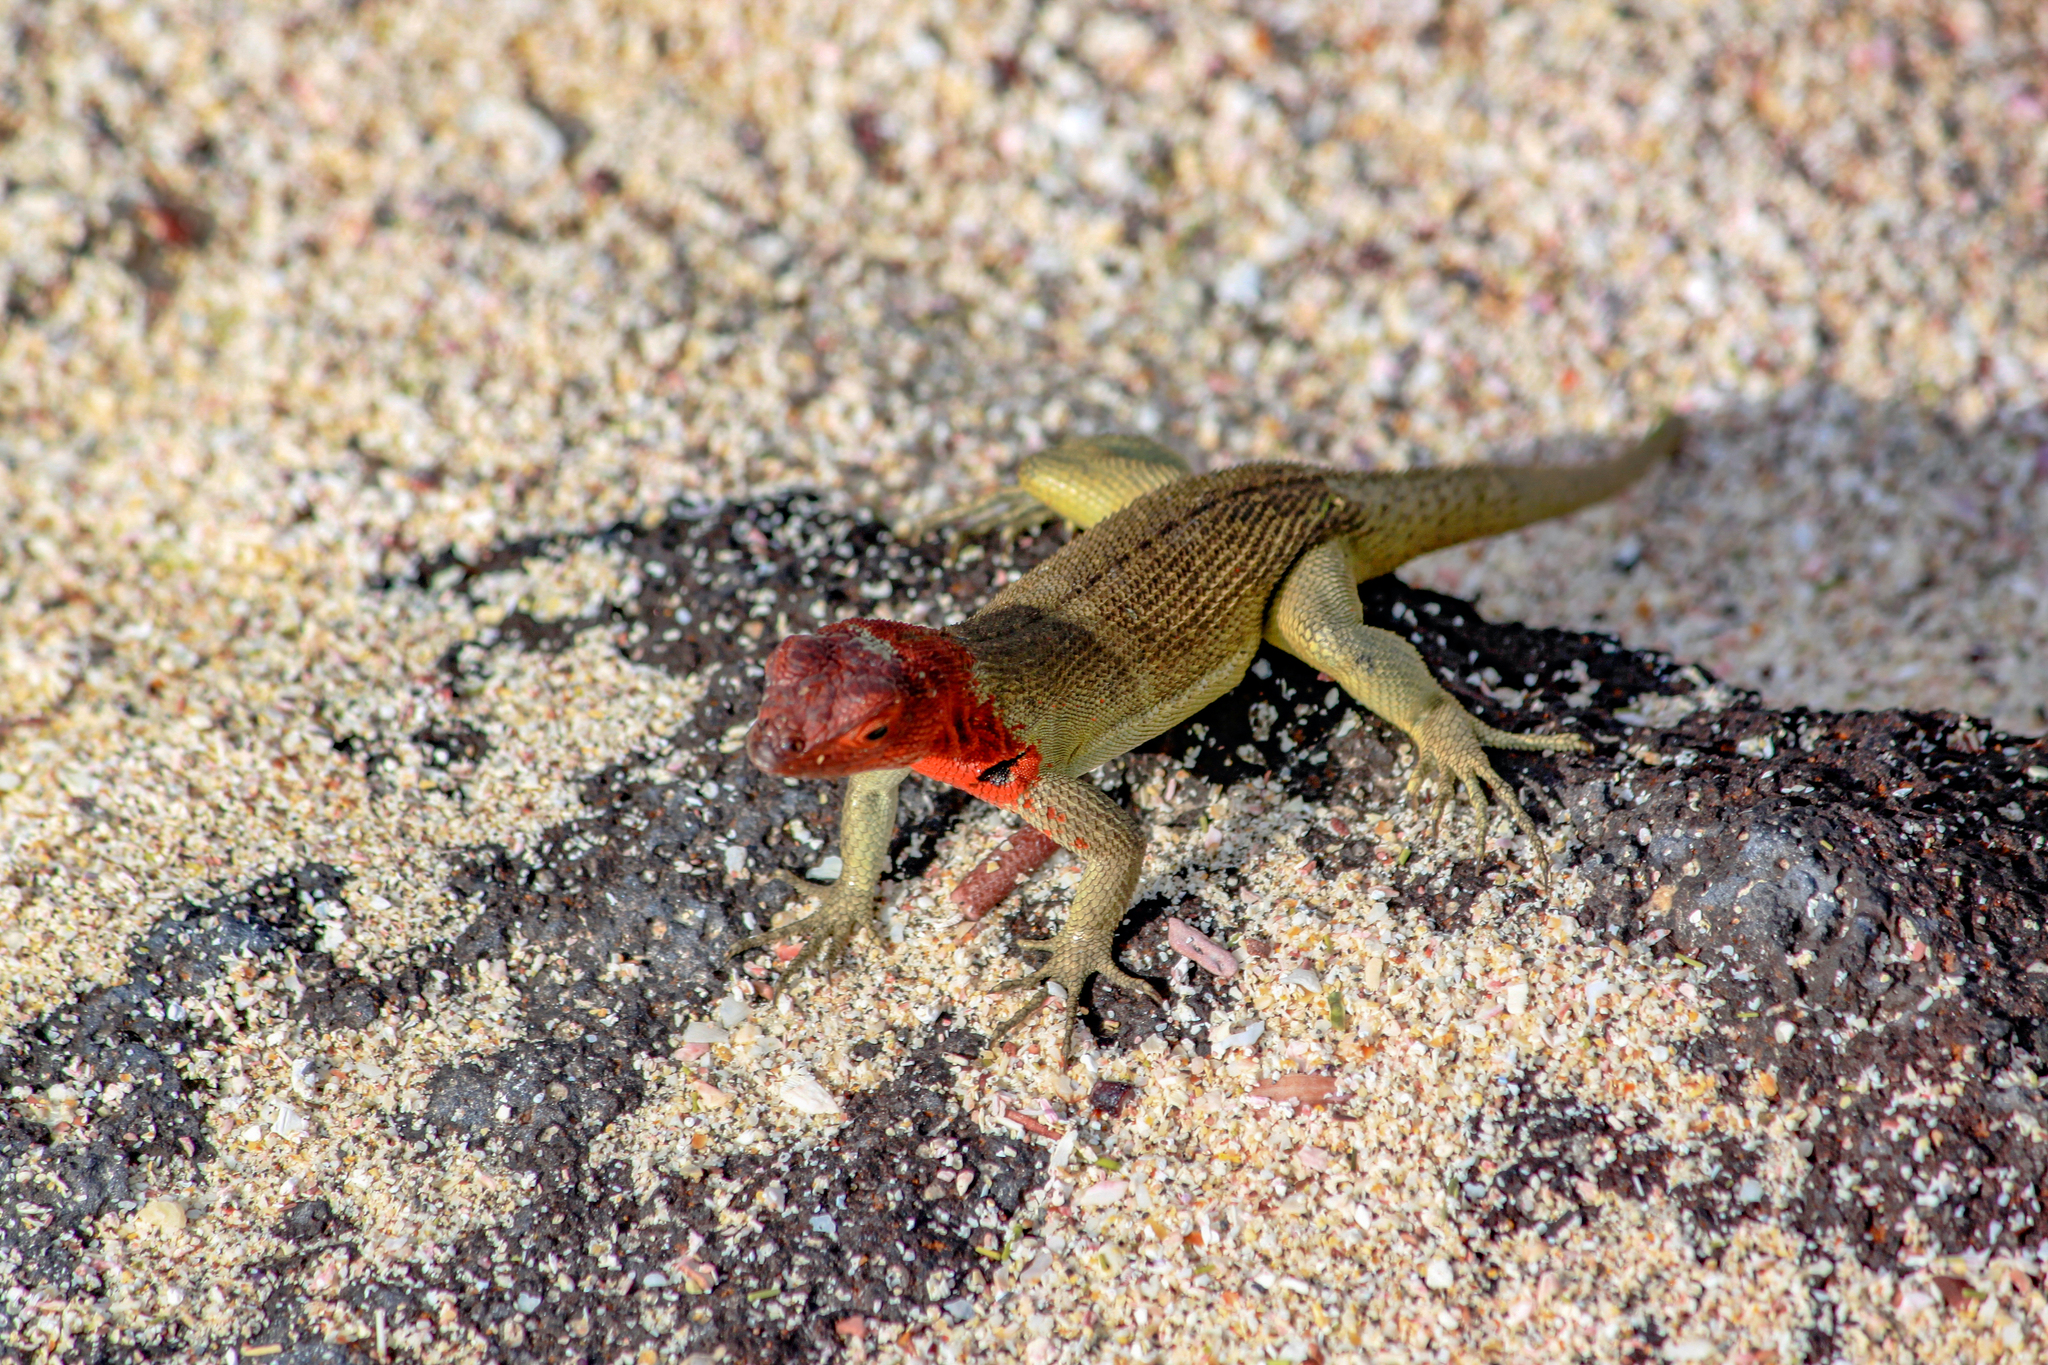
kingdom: Animalia
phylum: Chordata
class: Squamata
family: Tropiduridae
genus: Microlophus
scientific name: Microlophus delanonis
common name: Hood lava lizard
